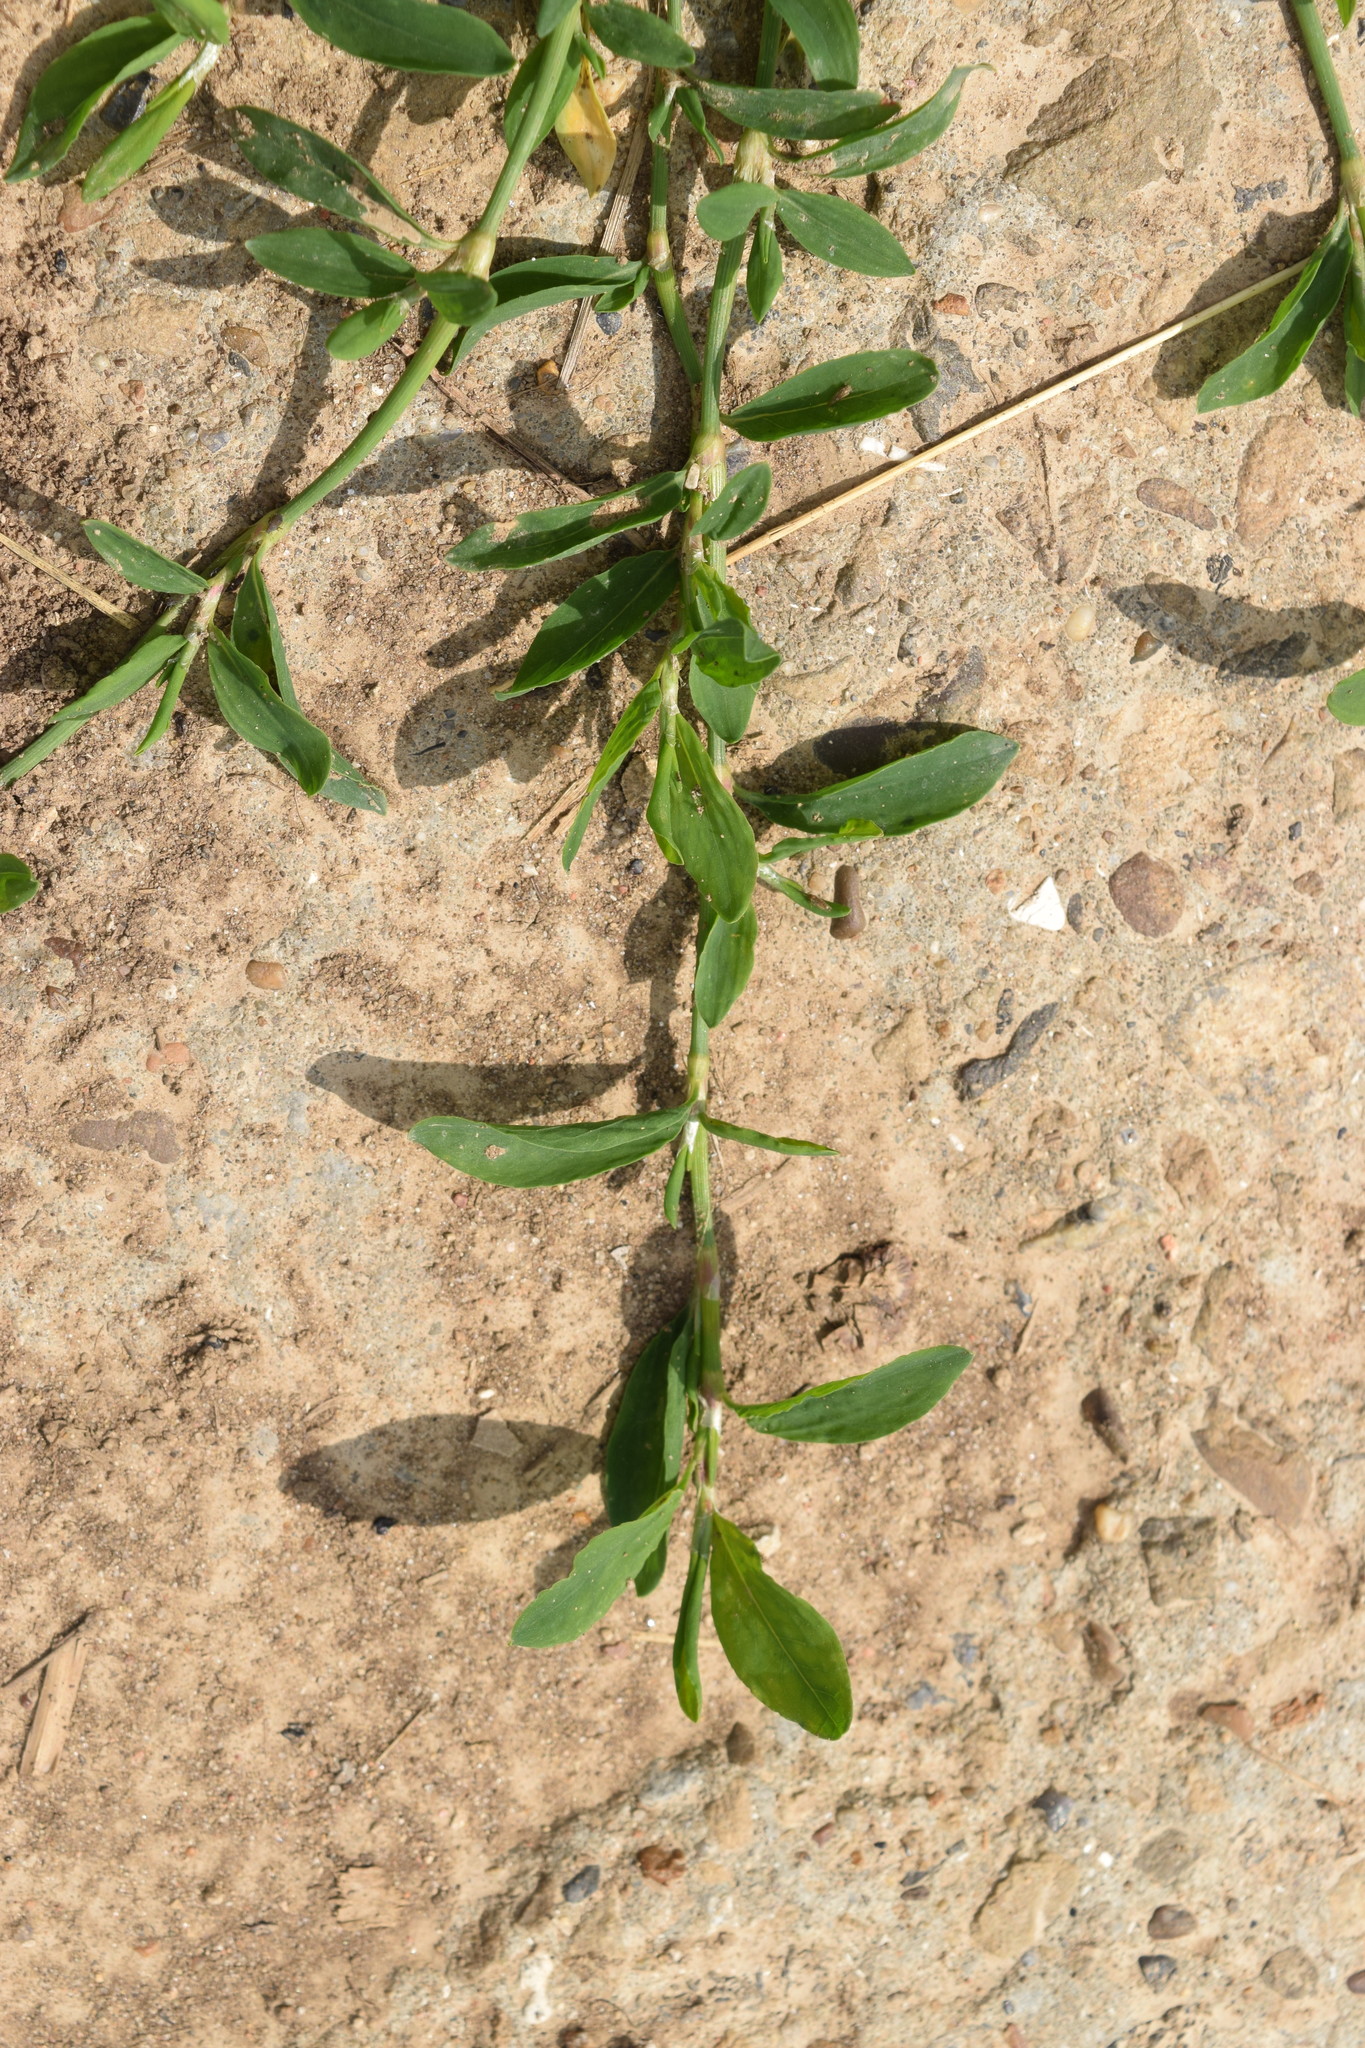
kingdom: Plantae
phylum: Tracheophyta
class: Magnoliopsida
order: Caryophyllales
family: Polygonaceae
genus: Polygonum
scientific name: Polygonum aviculare
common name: Prostrate knotweed
